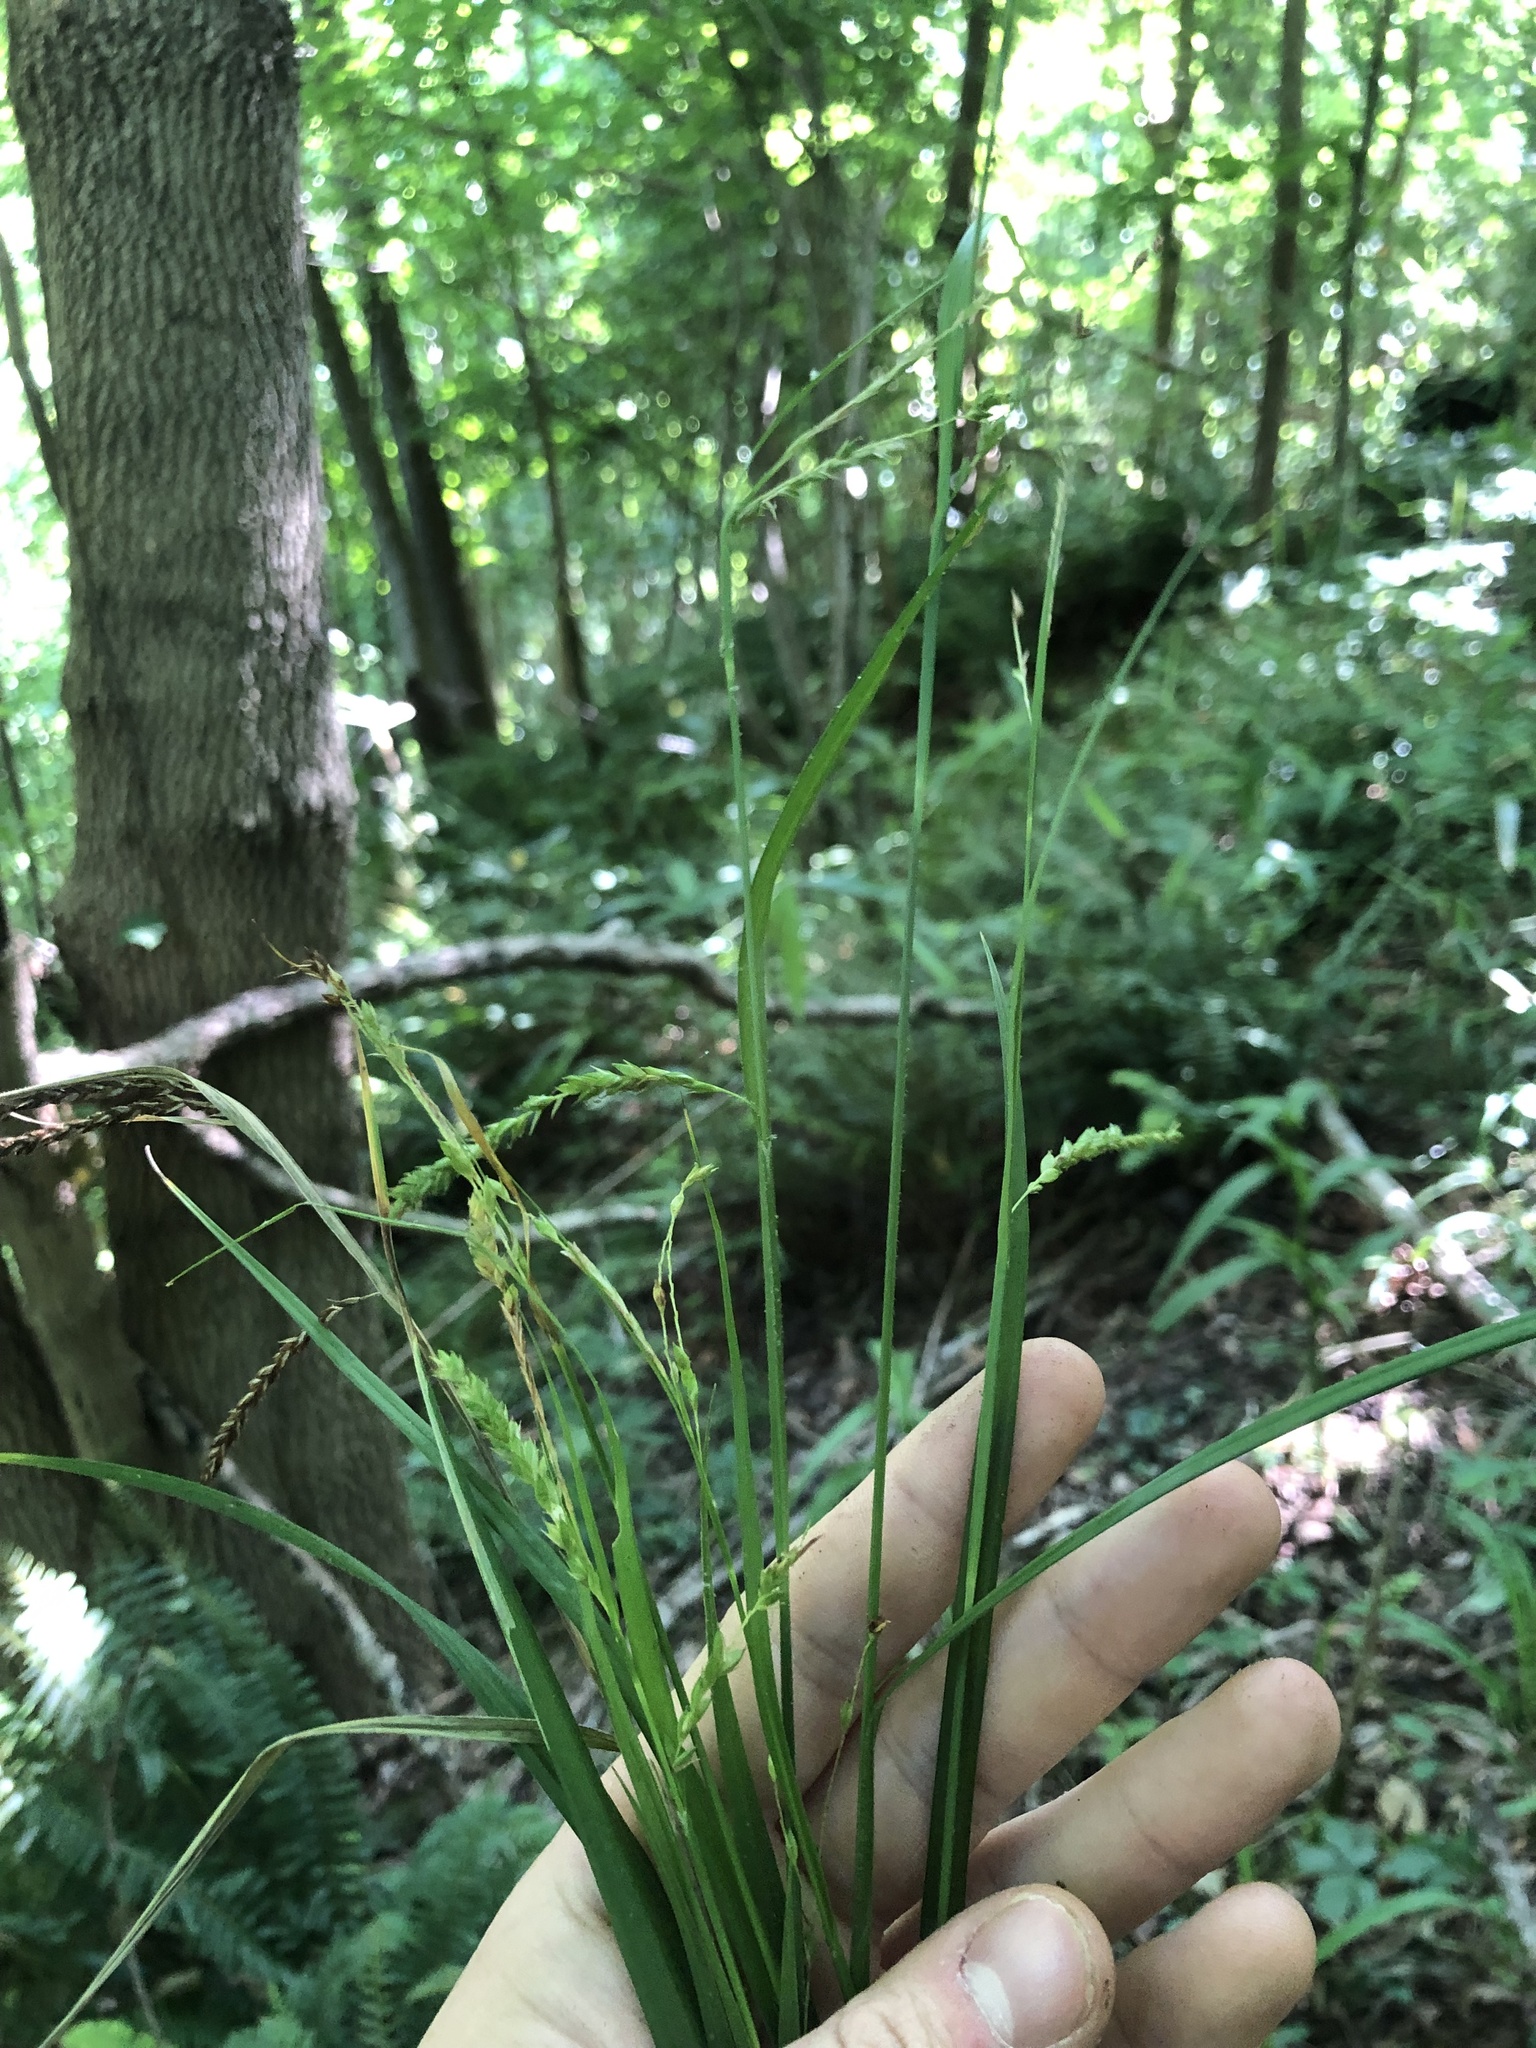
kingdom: Plantae
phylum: Tracheophyta
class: Liliopsida
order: Poales
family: Cyperaceae
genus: Carex
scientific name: Carex oxylepis
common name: Sharpscale sedge
